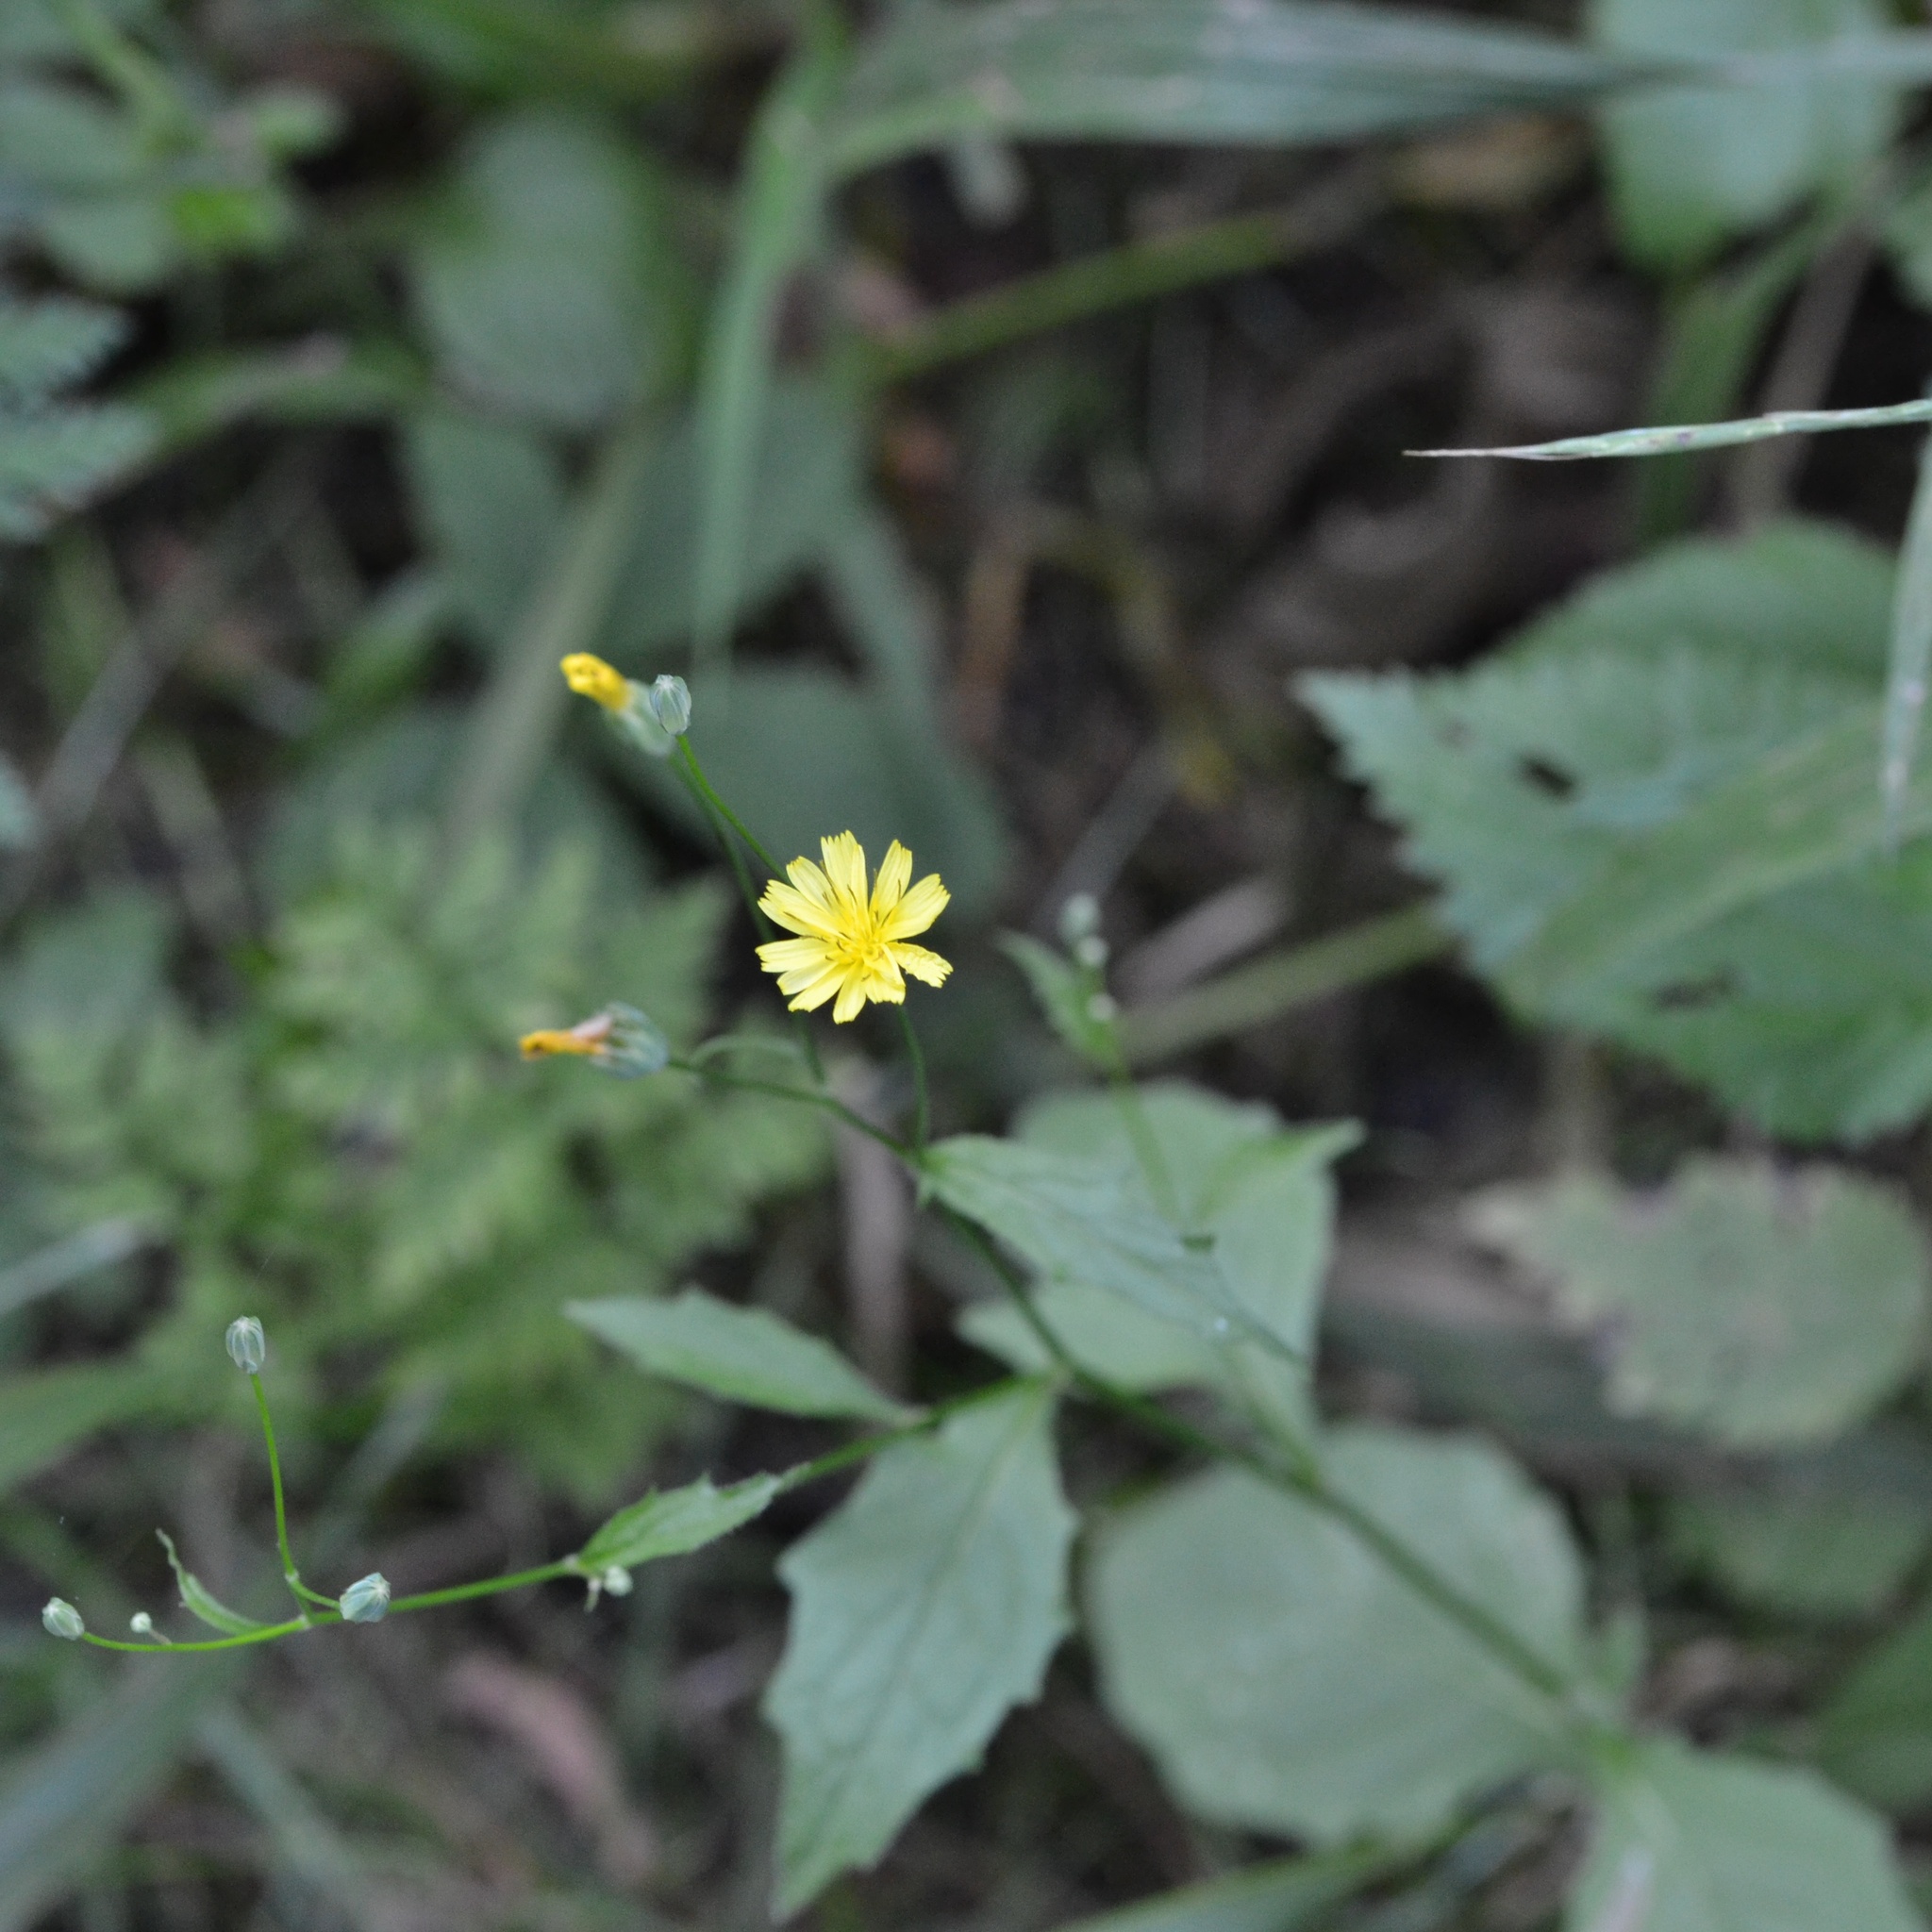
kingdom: Plantae
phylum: Tracheophyta
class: Magnoliopsida
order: Asterales
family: Asteraceae
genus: Lapsana
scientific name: Lapsana communis
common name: Nipplewort
